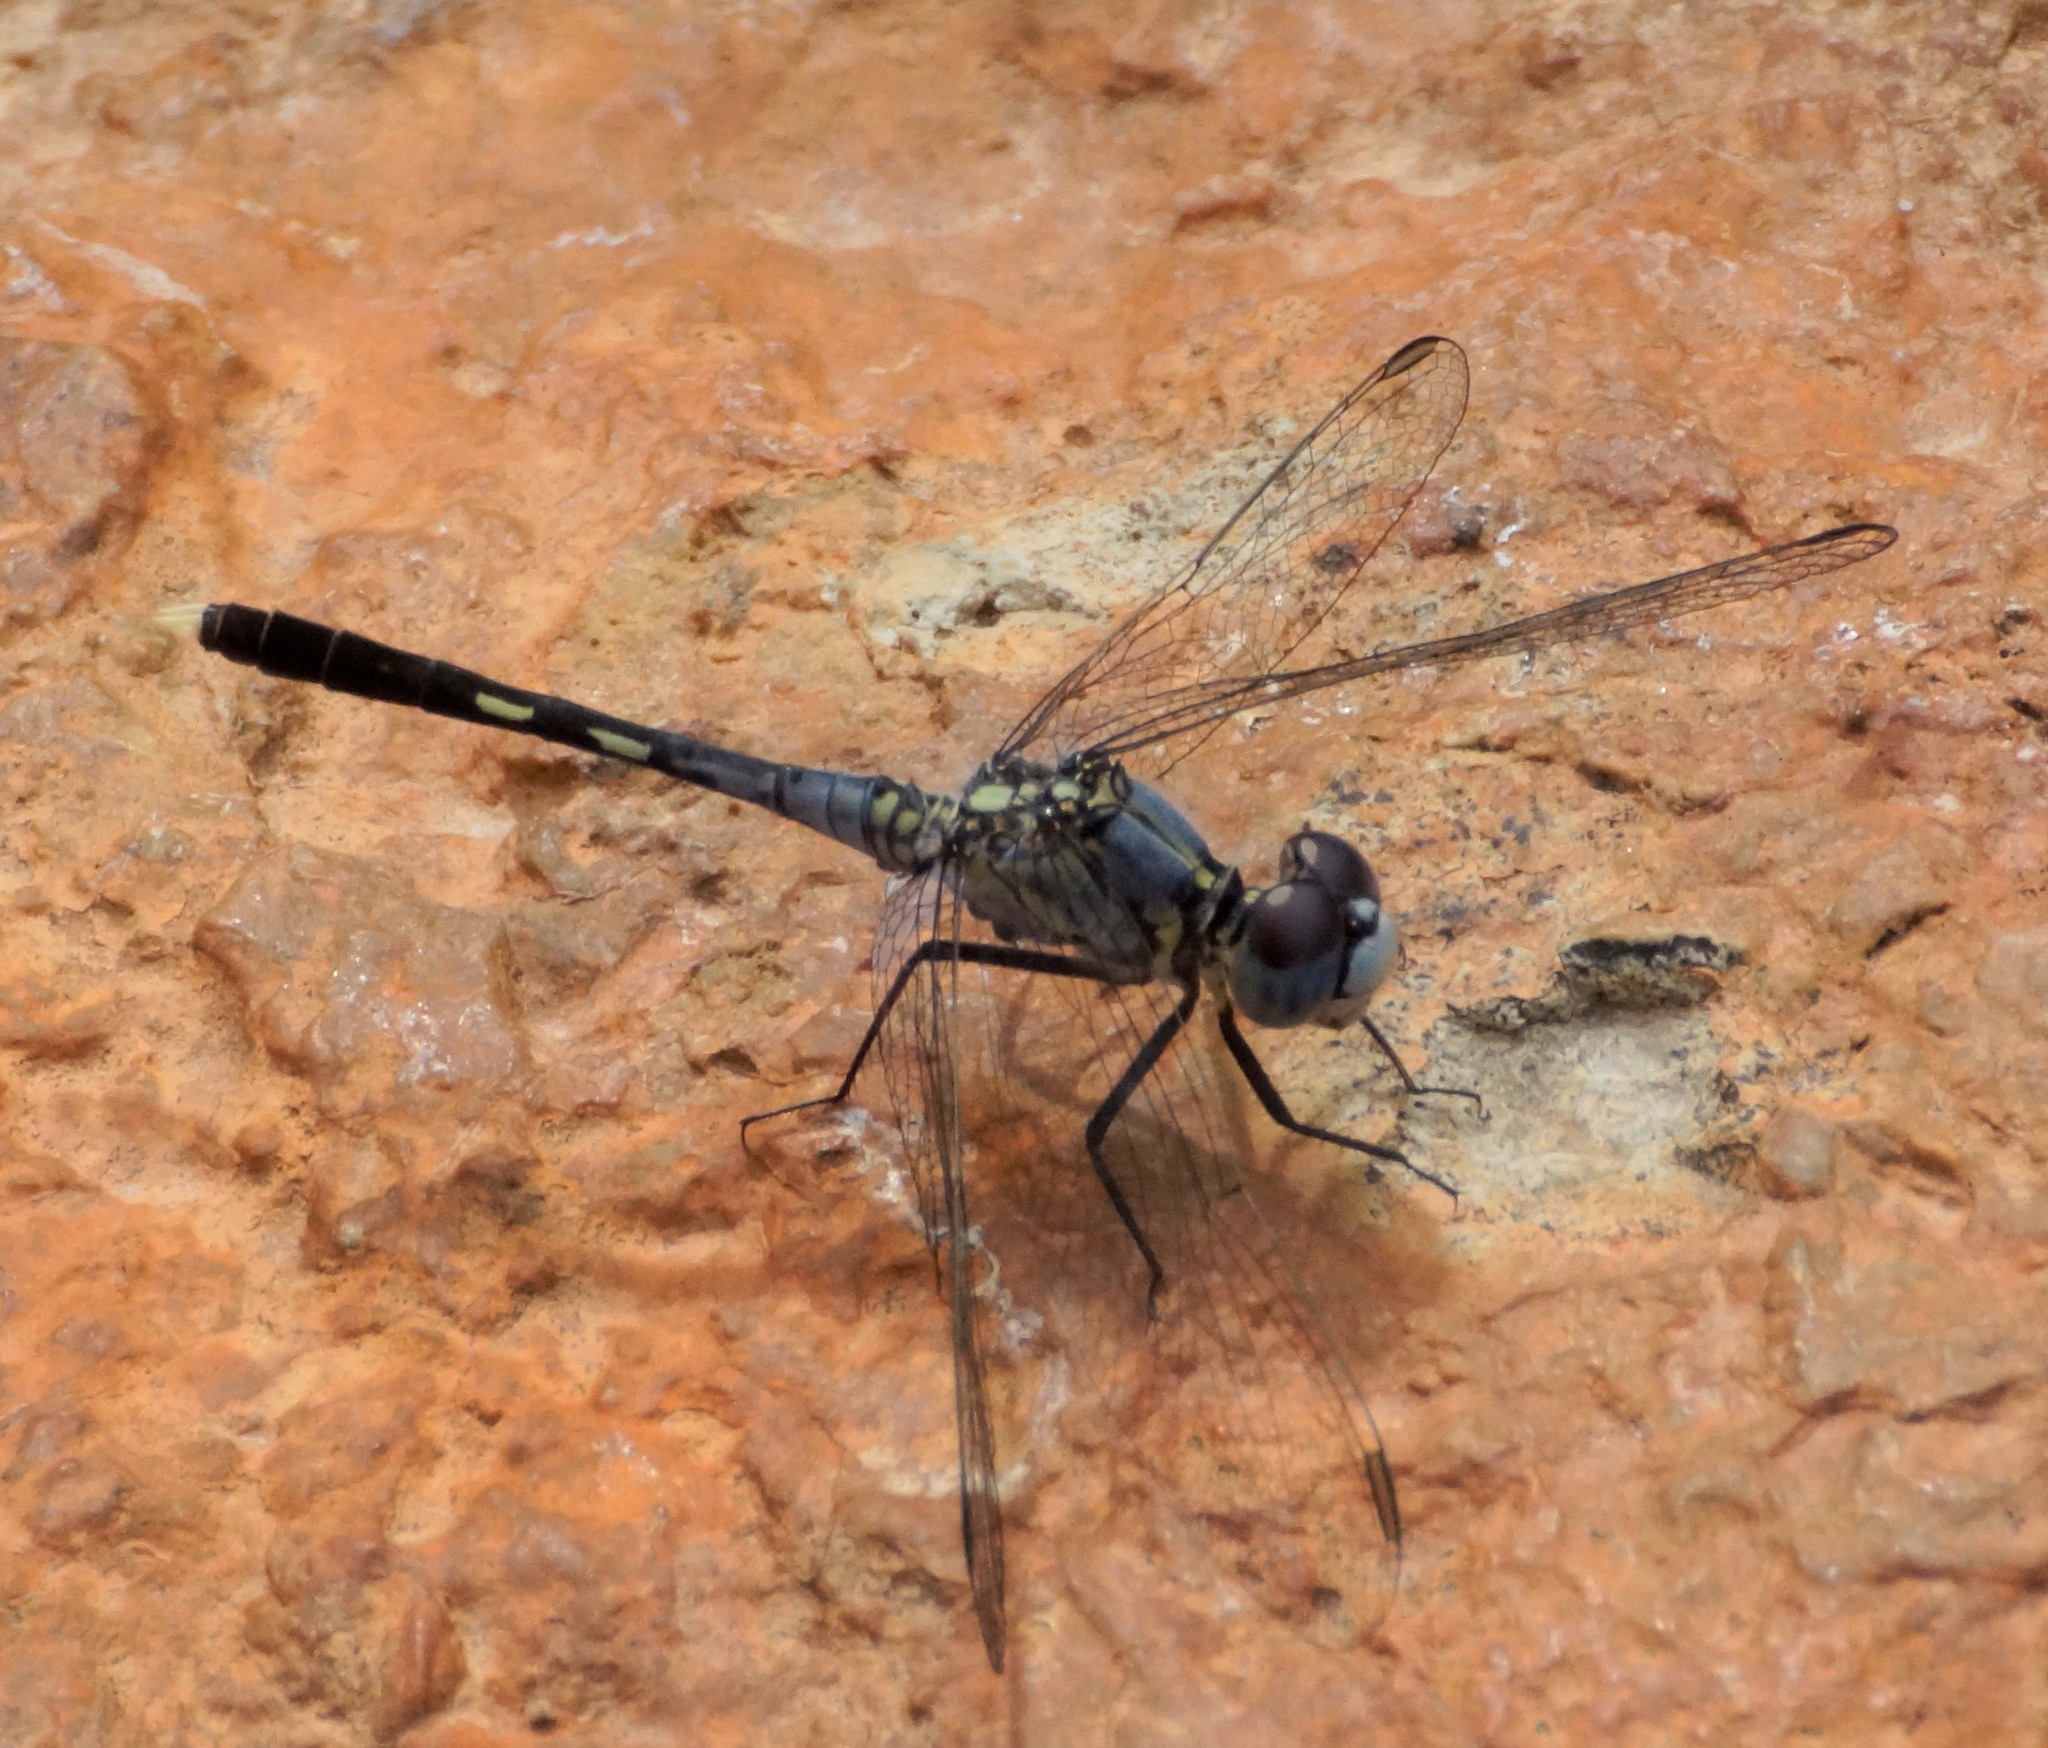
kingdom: Animalia
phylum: Arthropoda
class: Insecta
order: Odonata
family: Libellulidae
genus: Diplacodes
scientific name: Diplacodes trivialis
